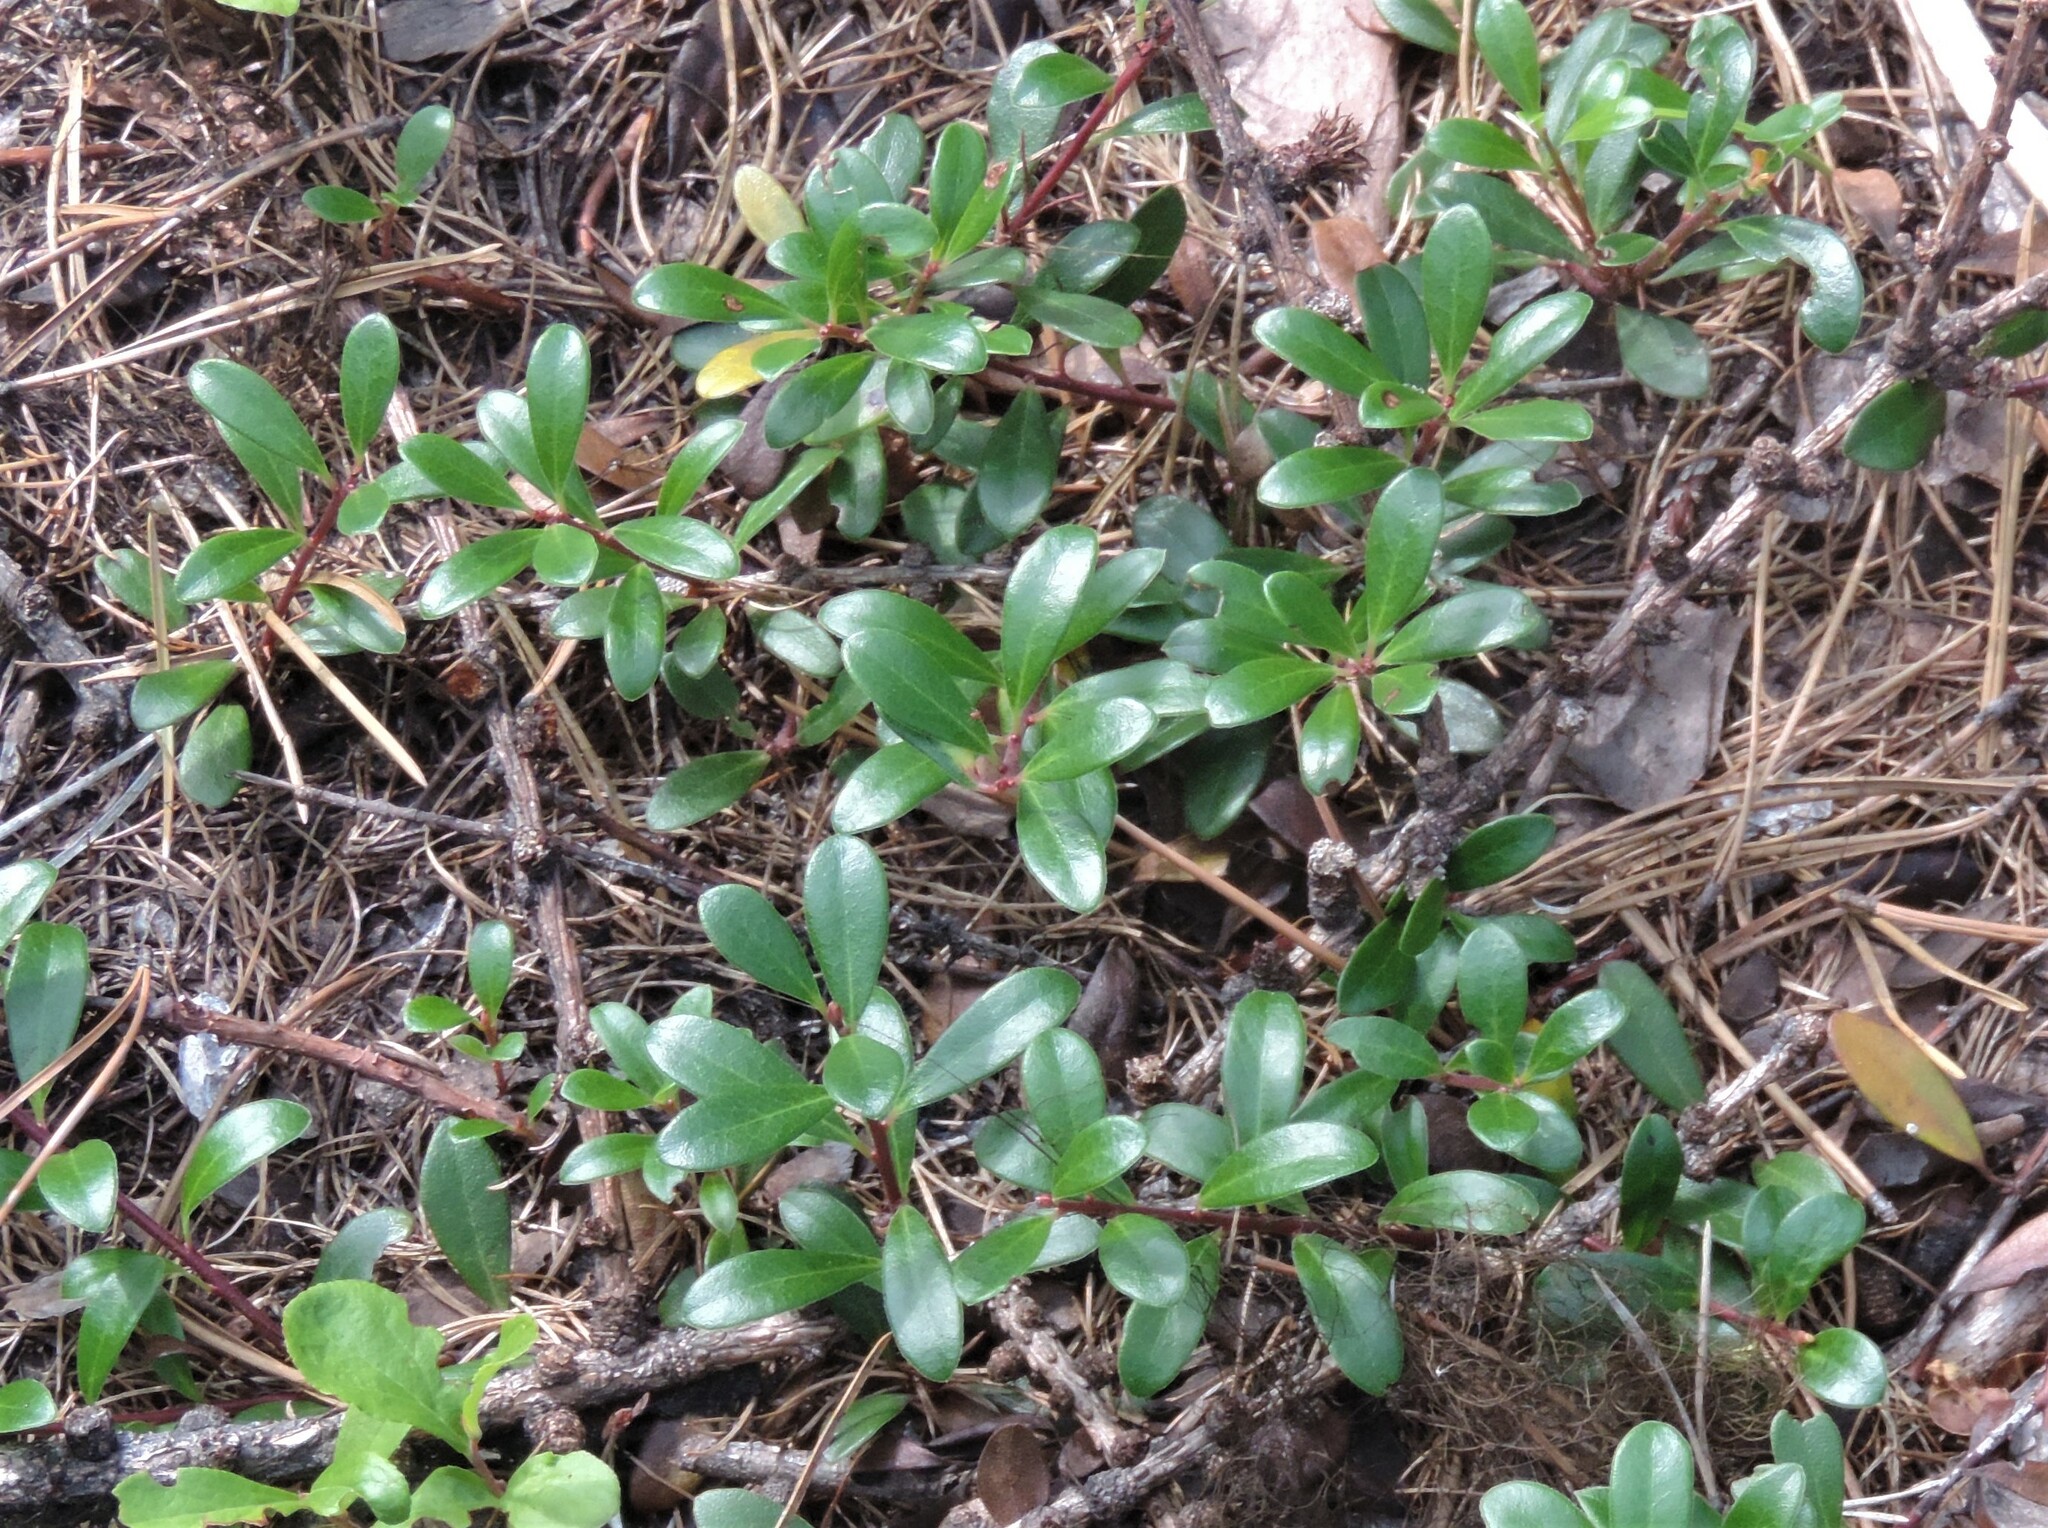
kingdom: Plantae
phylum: Tracheophyta
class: Magnoliopsida
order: Ericales
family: Ericaceae
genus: Arctostaphylos
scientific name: Arctostaphylos uva-ursi
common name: Bearberry
